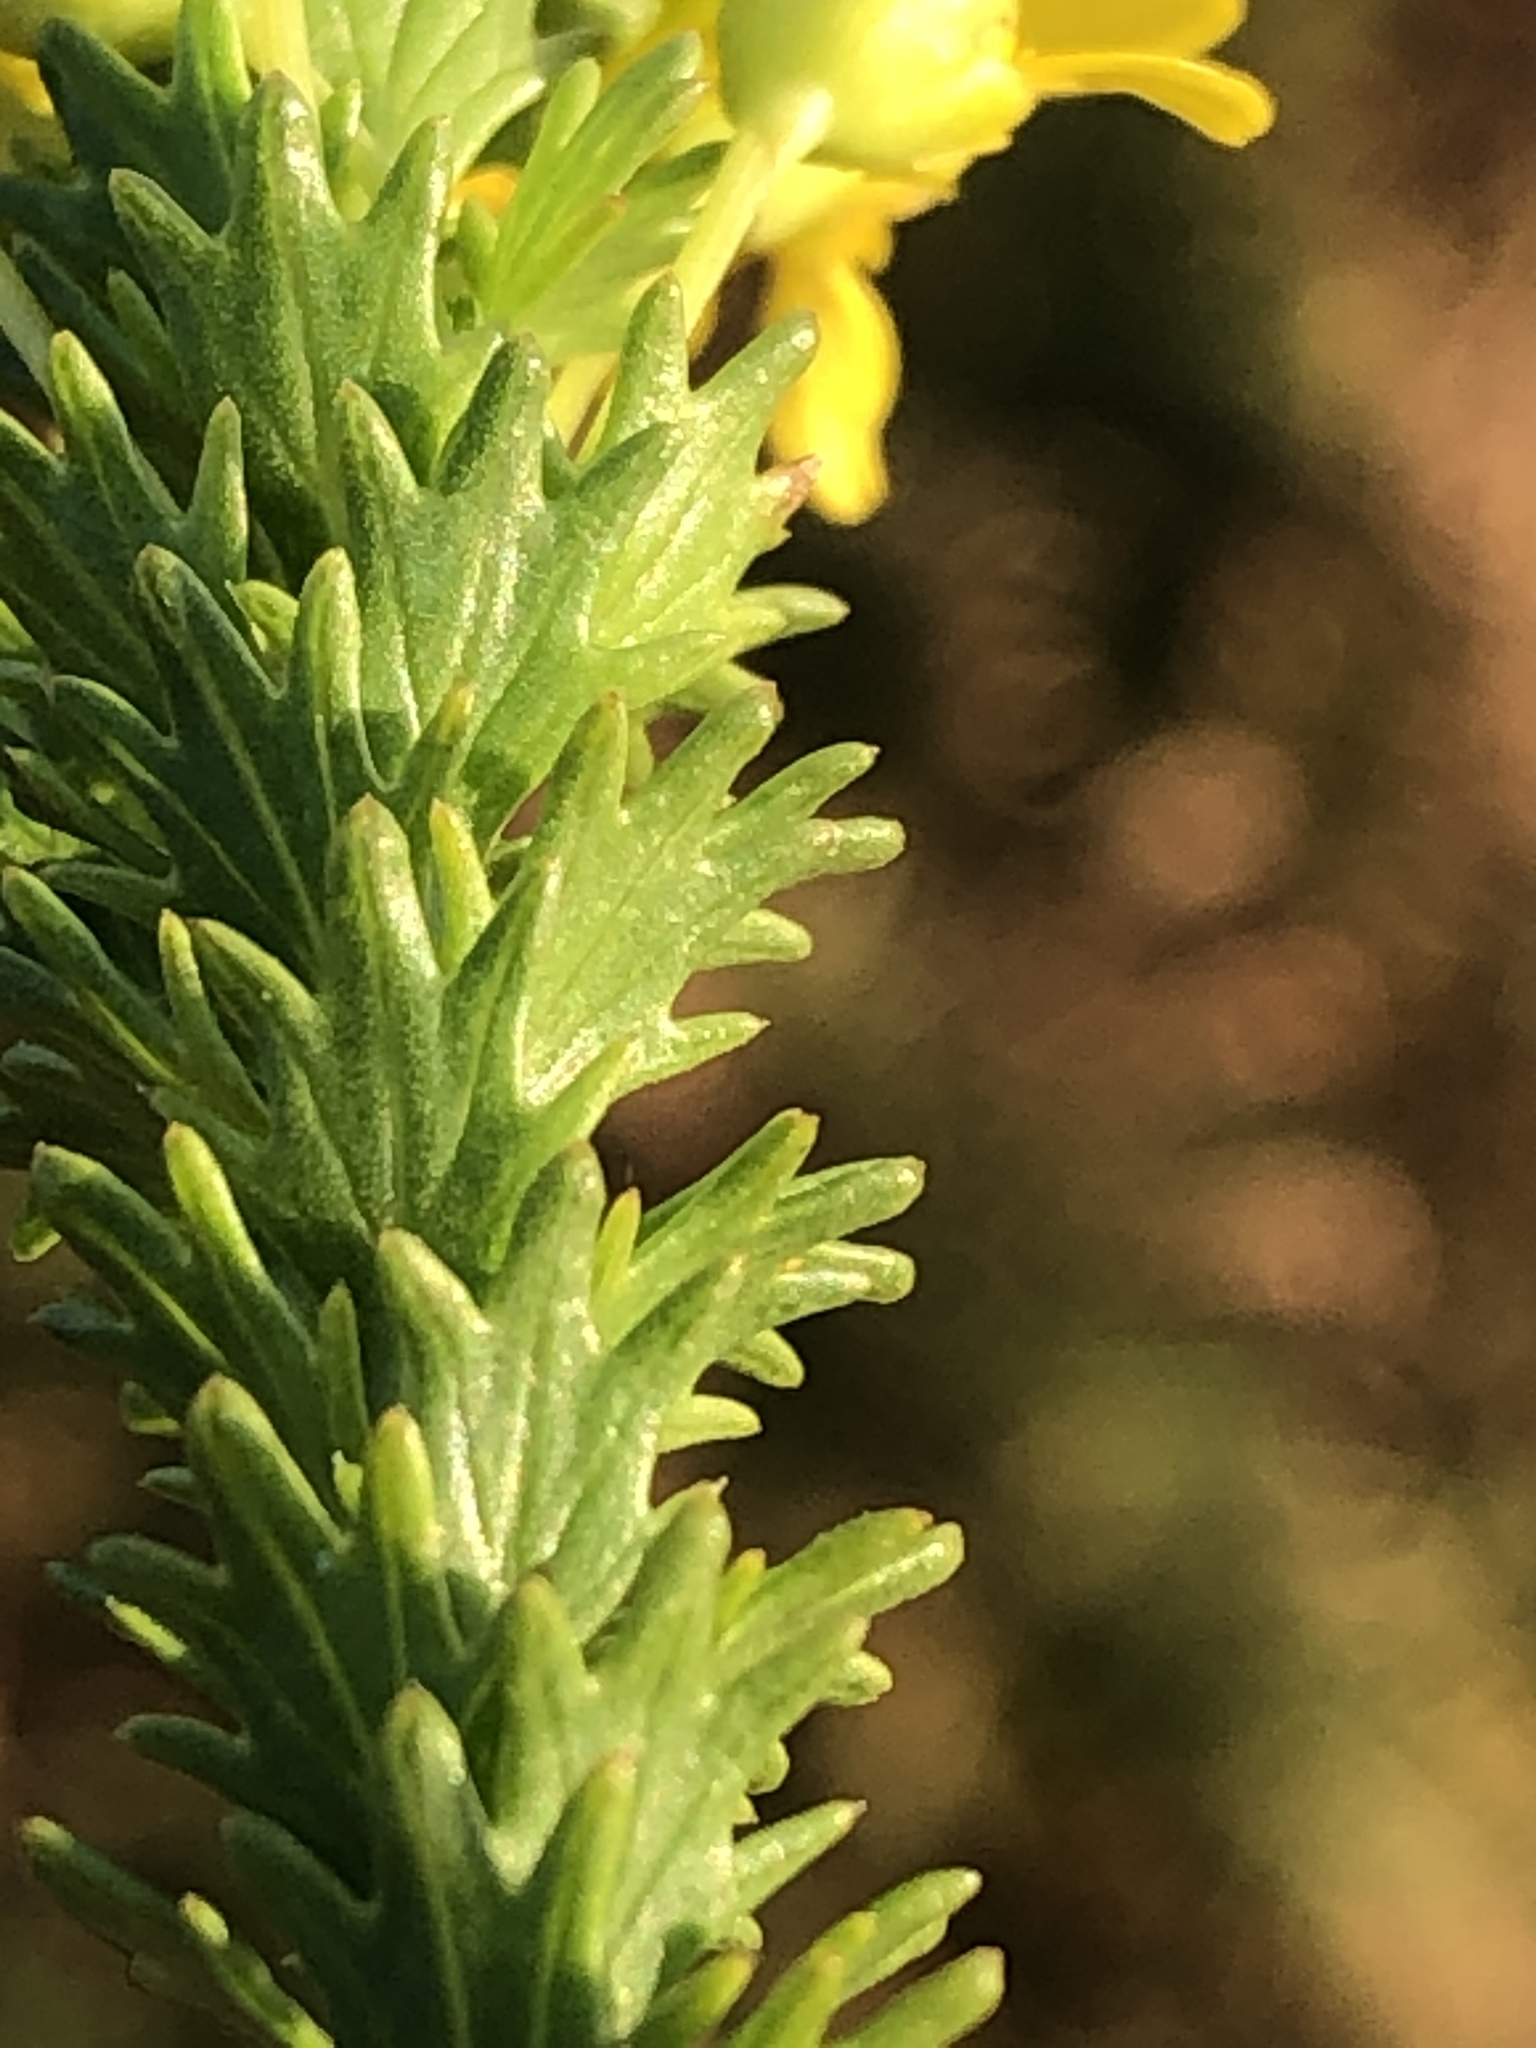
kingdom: Plantae
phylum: Tracheophyta
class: Magnoliopsida
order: Asterales
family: Asteraceae
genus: Euryops
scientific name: Euryops virgineus
